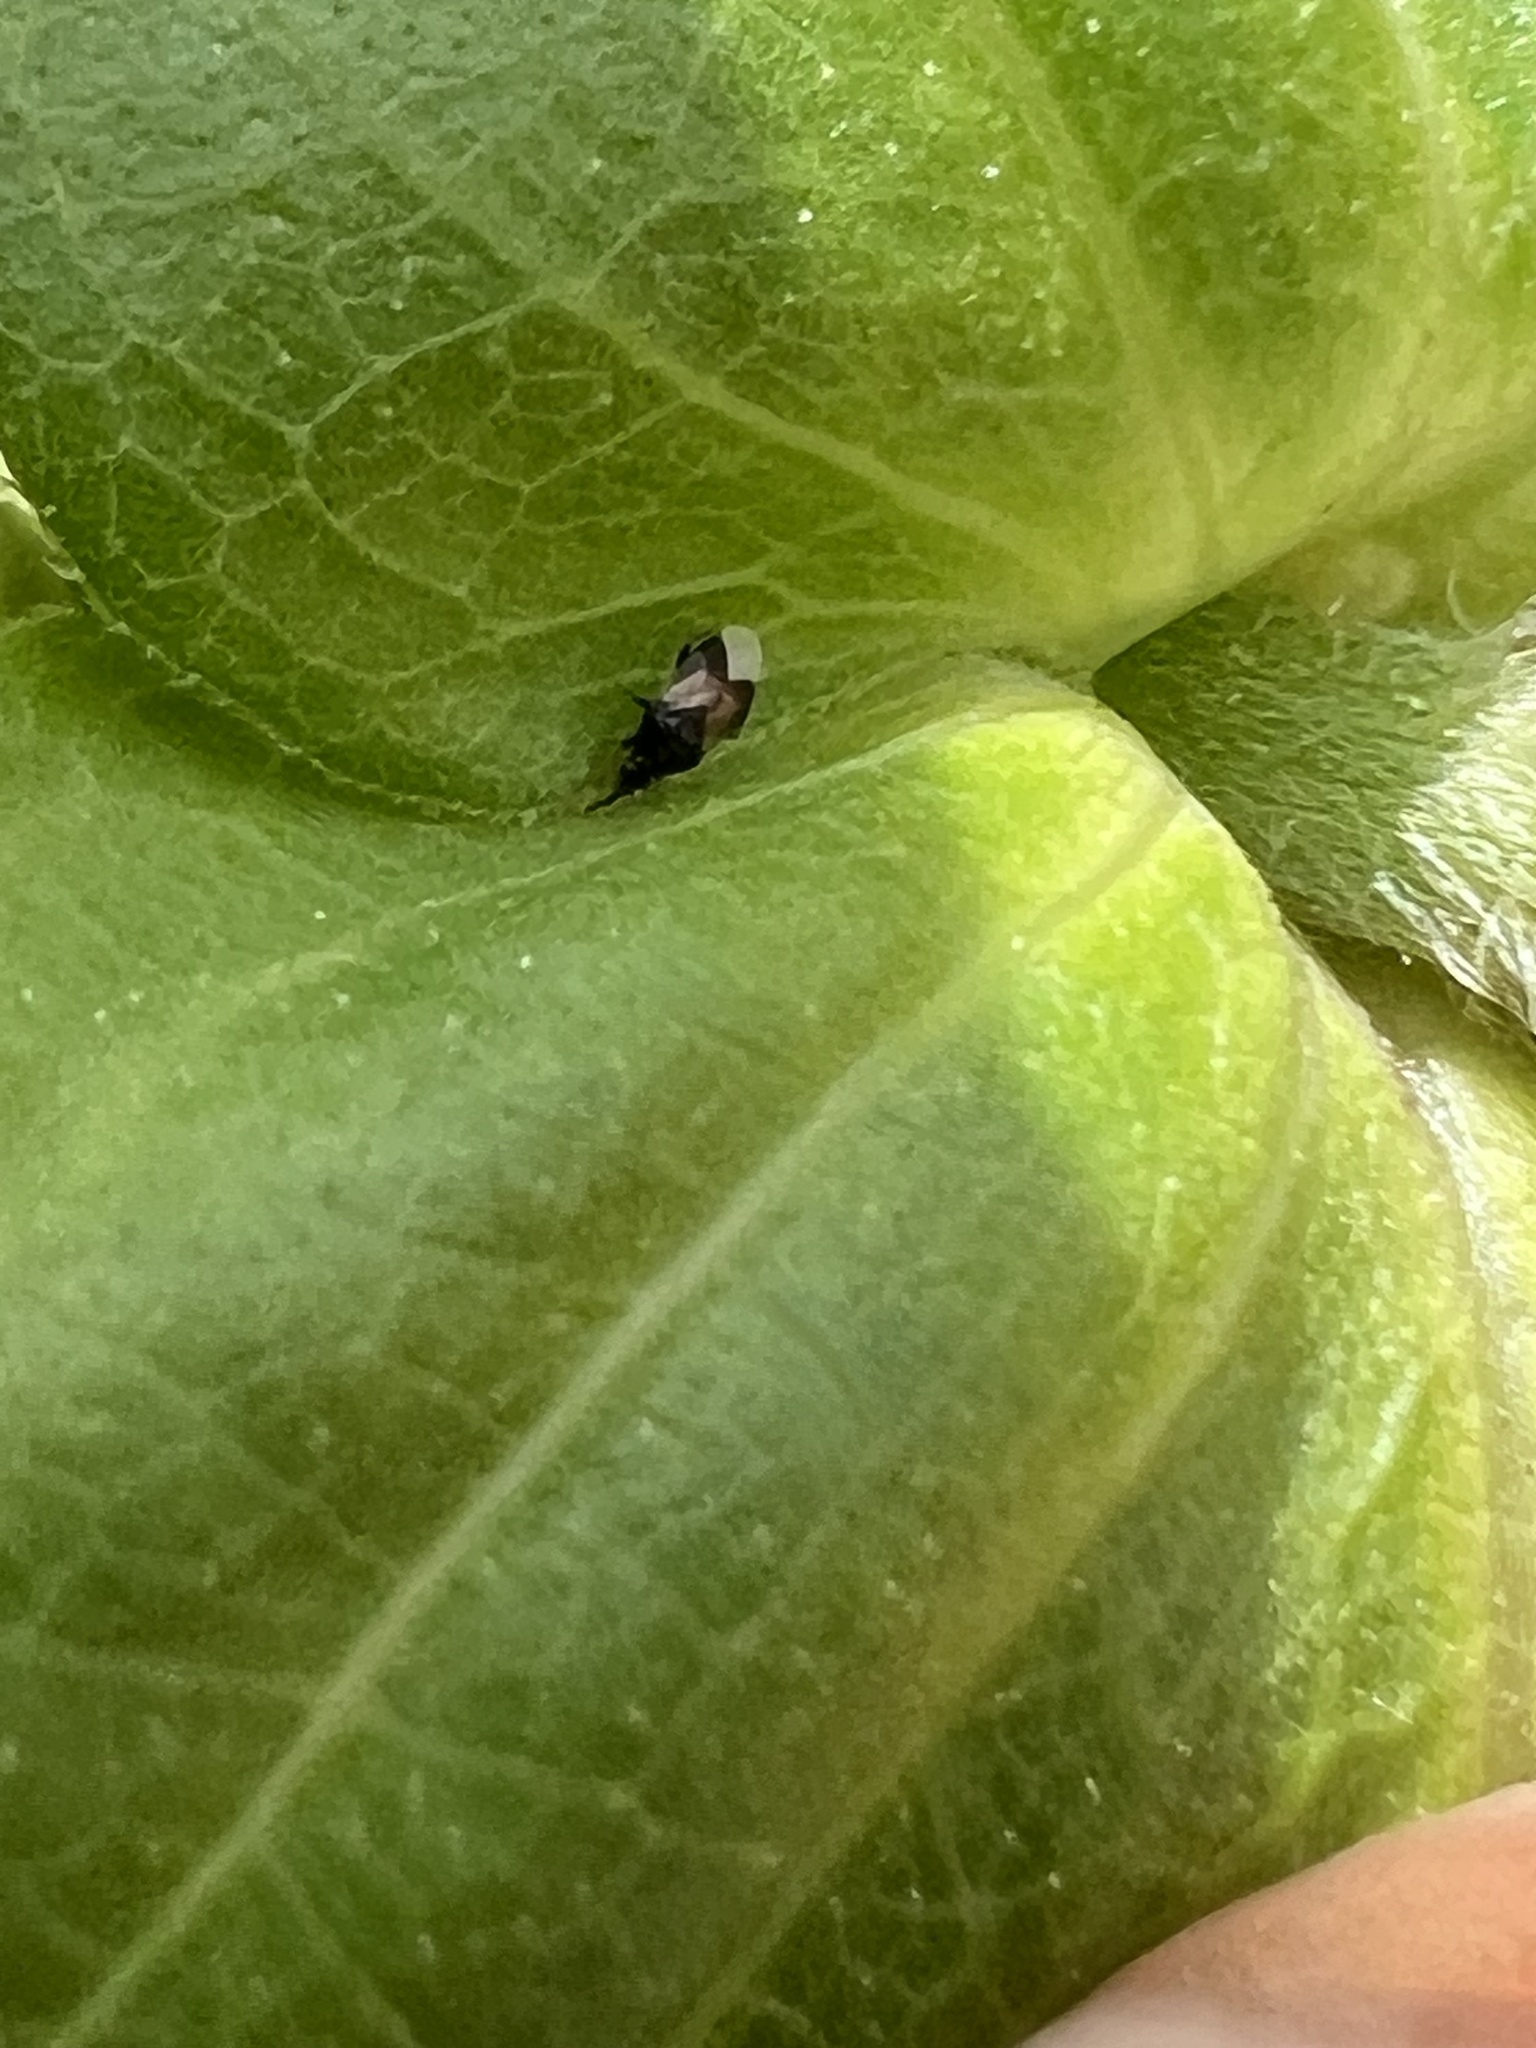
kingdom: Animalia
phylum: Arthropoda
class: Insecta
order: Hemiptera
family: Anthocoridae
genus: Orius
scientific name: Orius insidiosus
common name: Insidious flower bug
